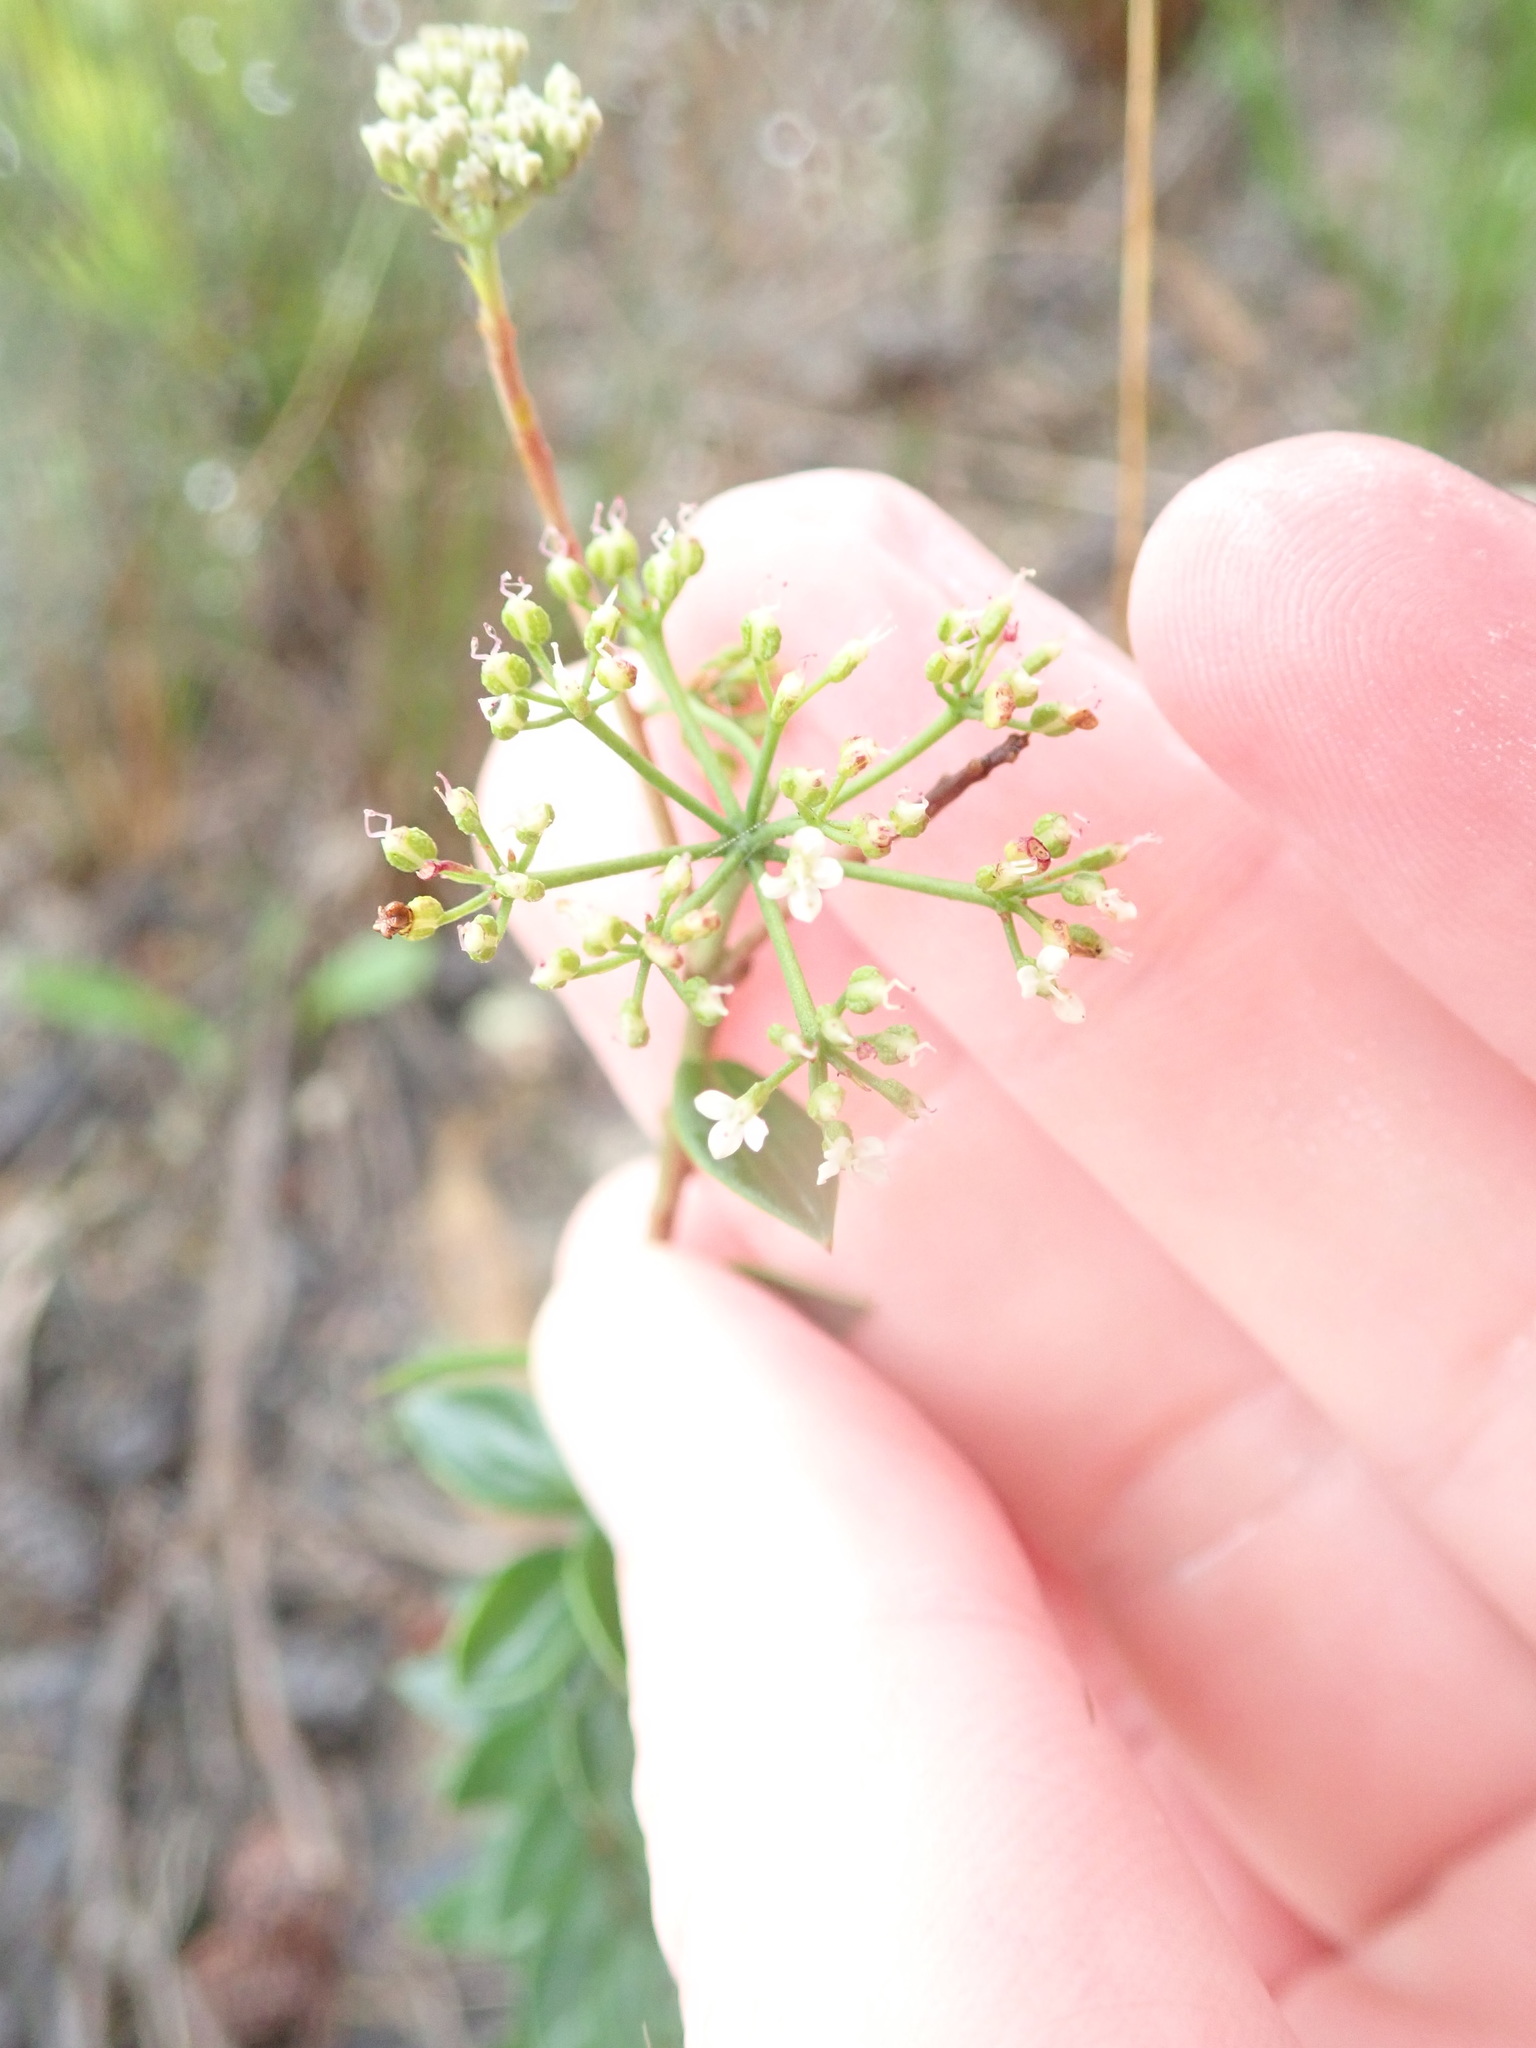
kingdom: Plantae
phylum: Tracheophyta
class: Magnoliopsida
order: Apiales
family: Apiaceae
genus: Platysace
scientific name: Platysace lanceolata
